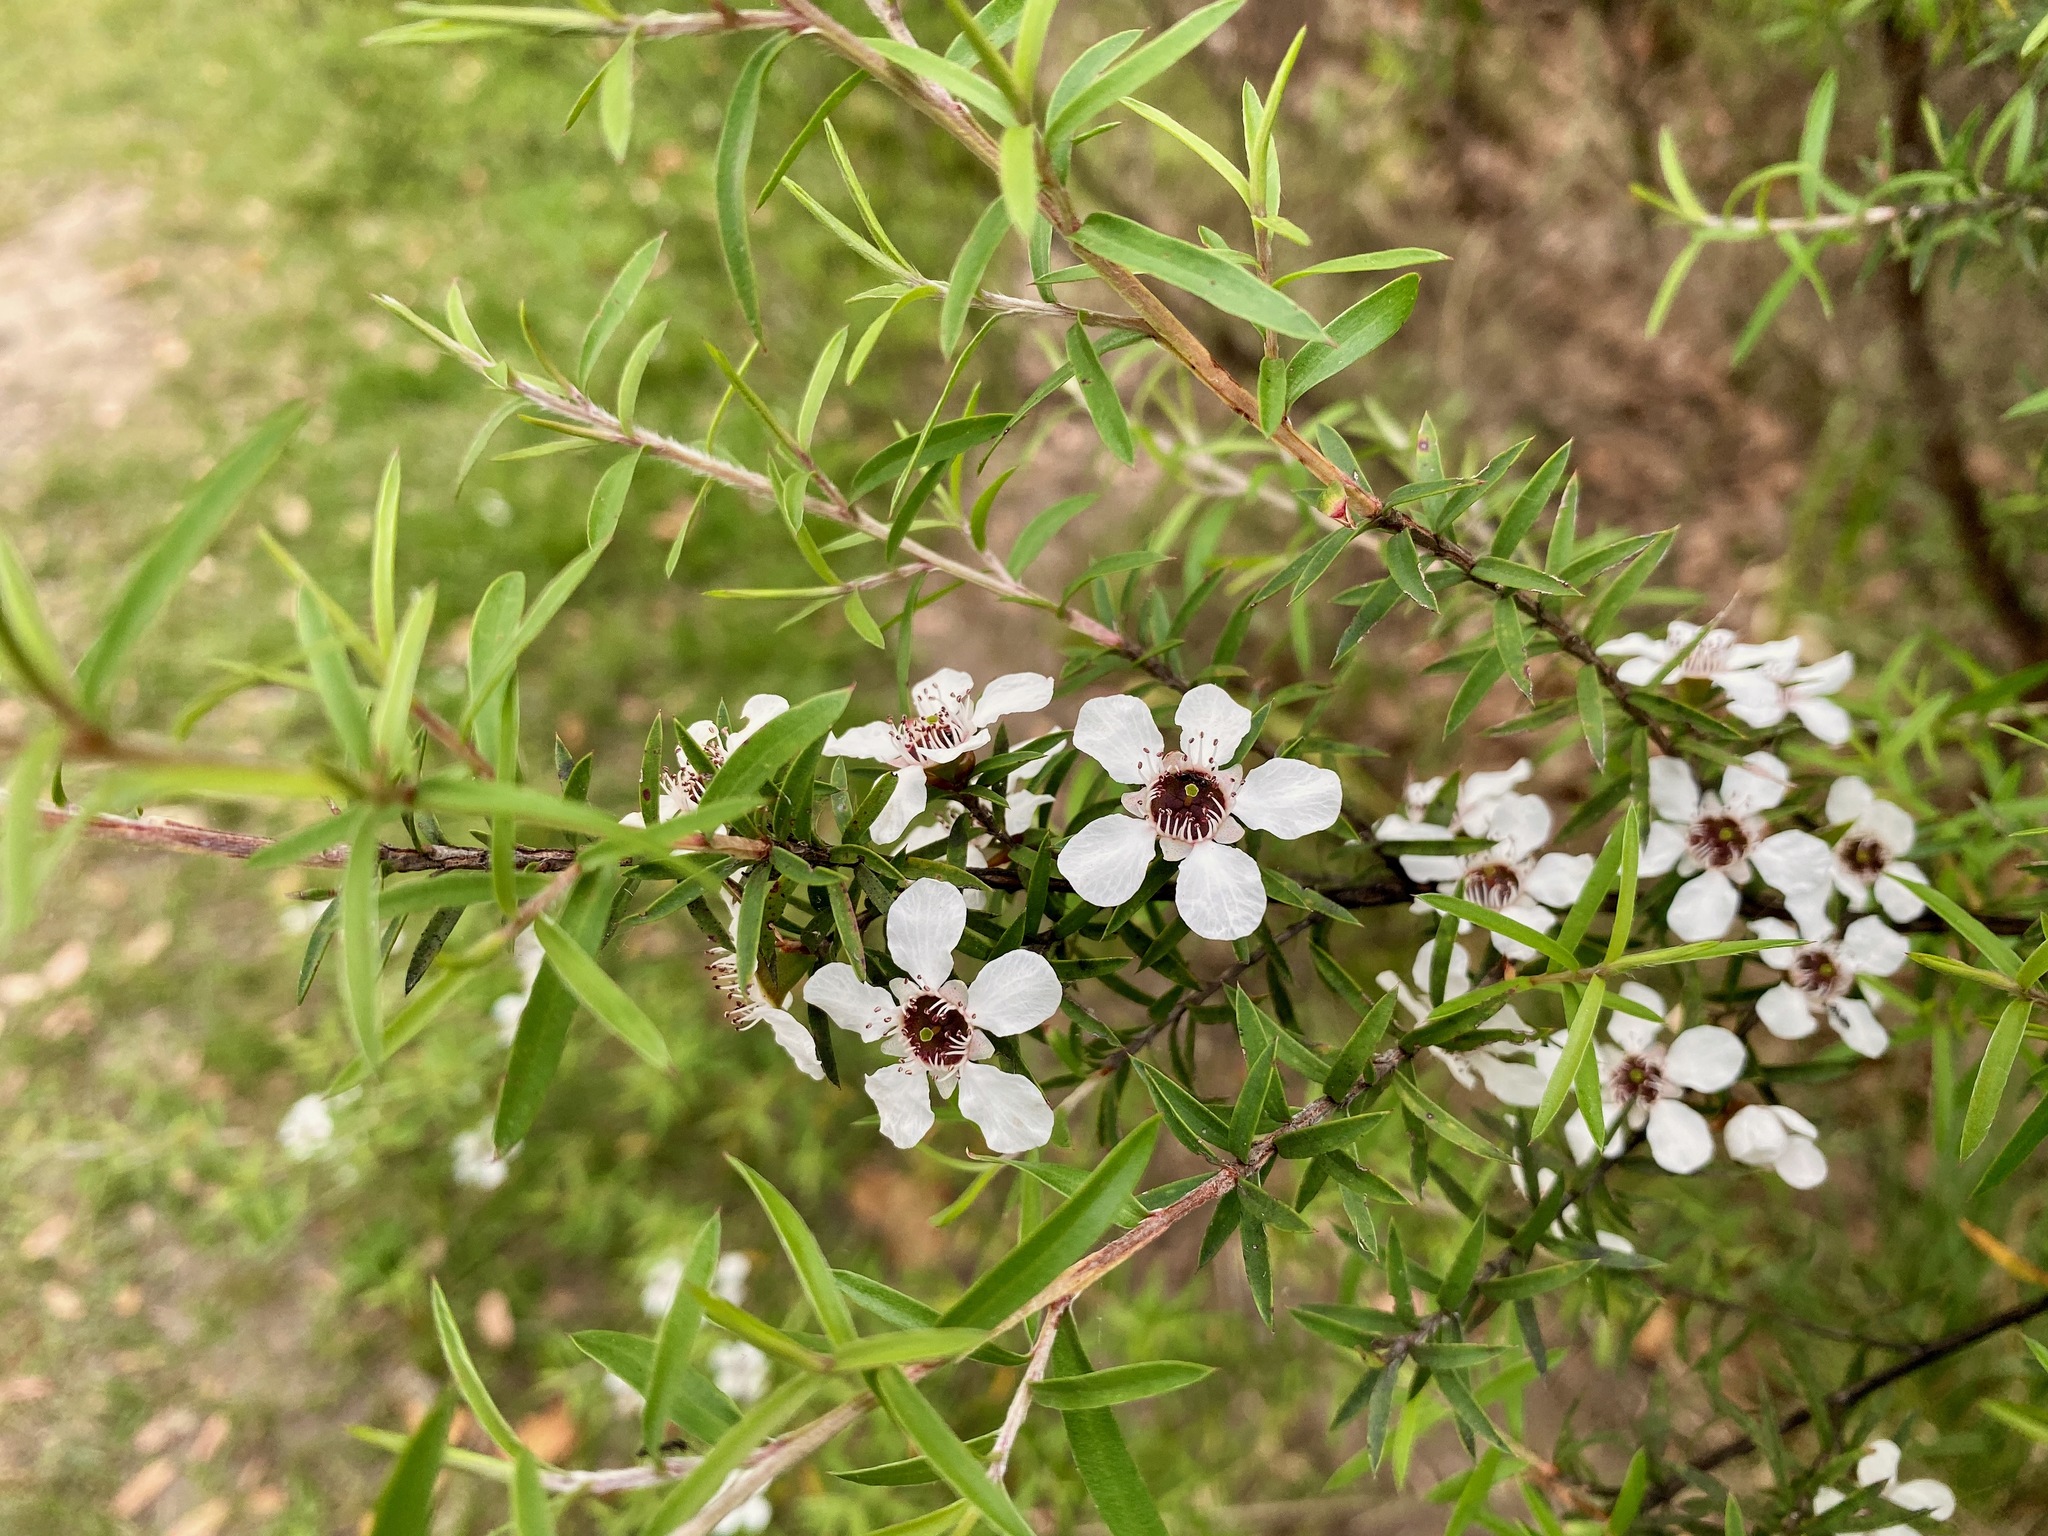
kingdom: Plantae
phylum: Tracheophyta
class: Magnoliopsida
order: Myrtales
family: Myrtaceae
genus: Leptospermum
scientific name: Leptospermum scoparium
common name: Broom tea-tree
